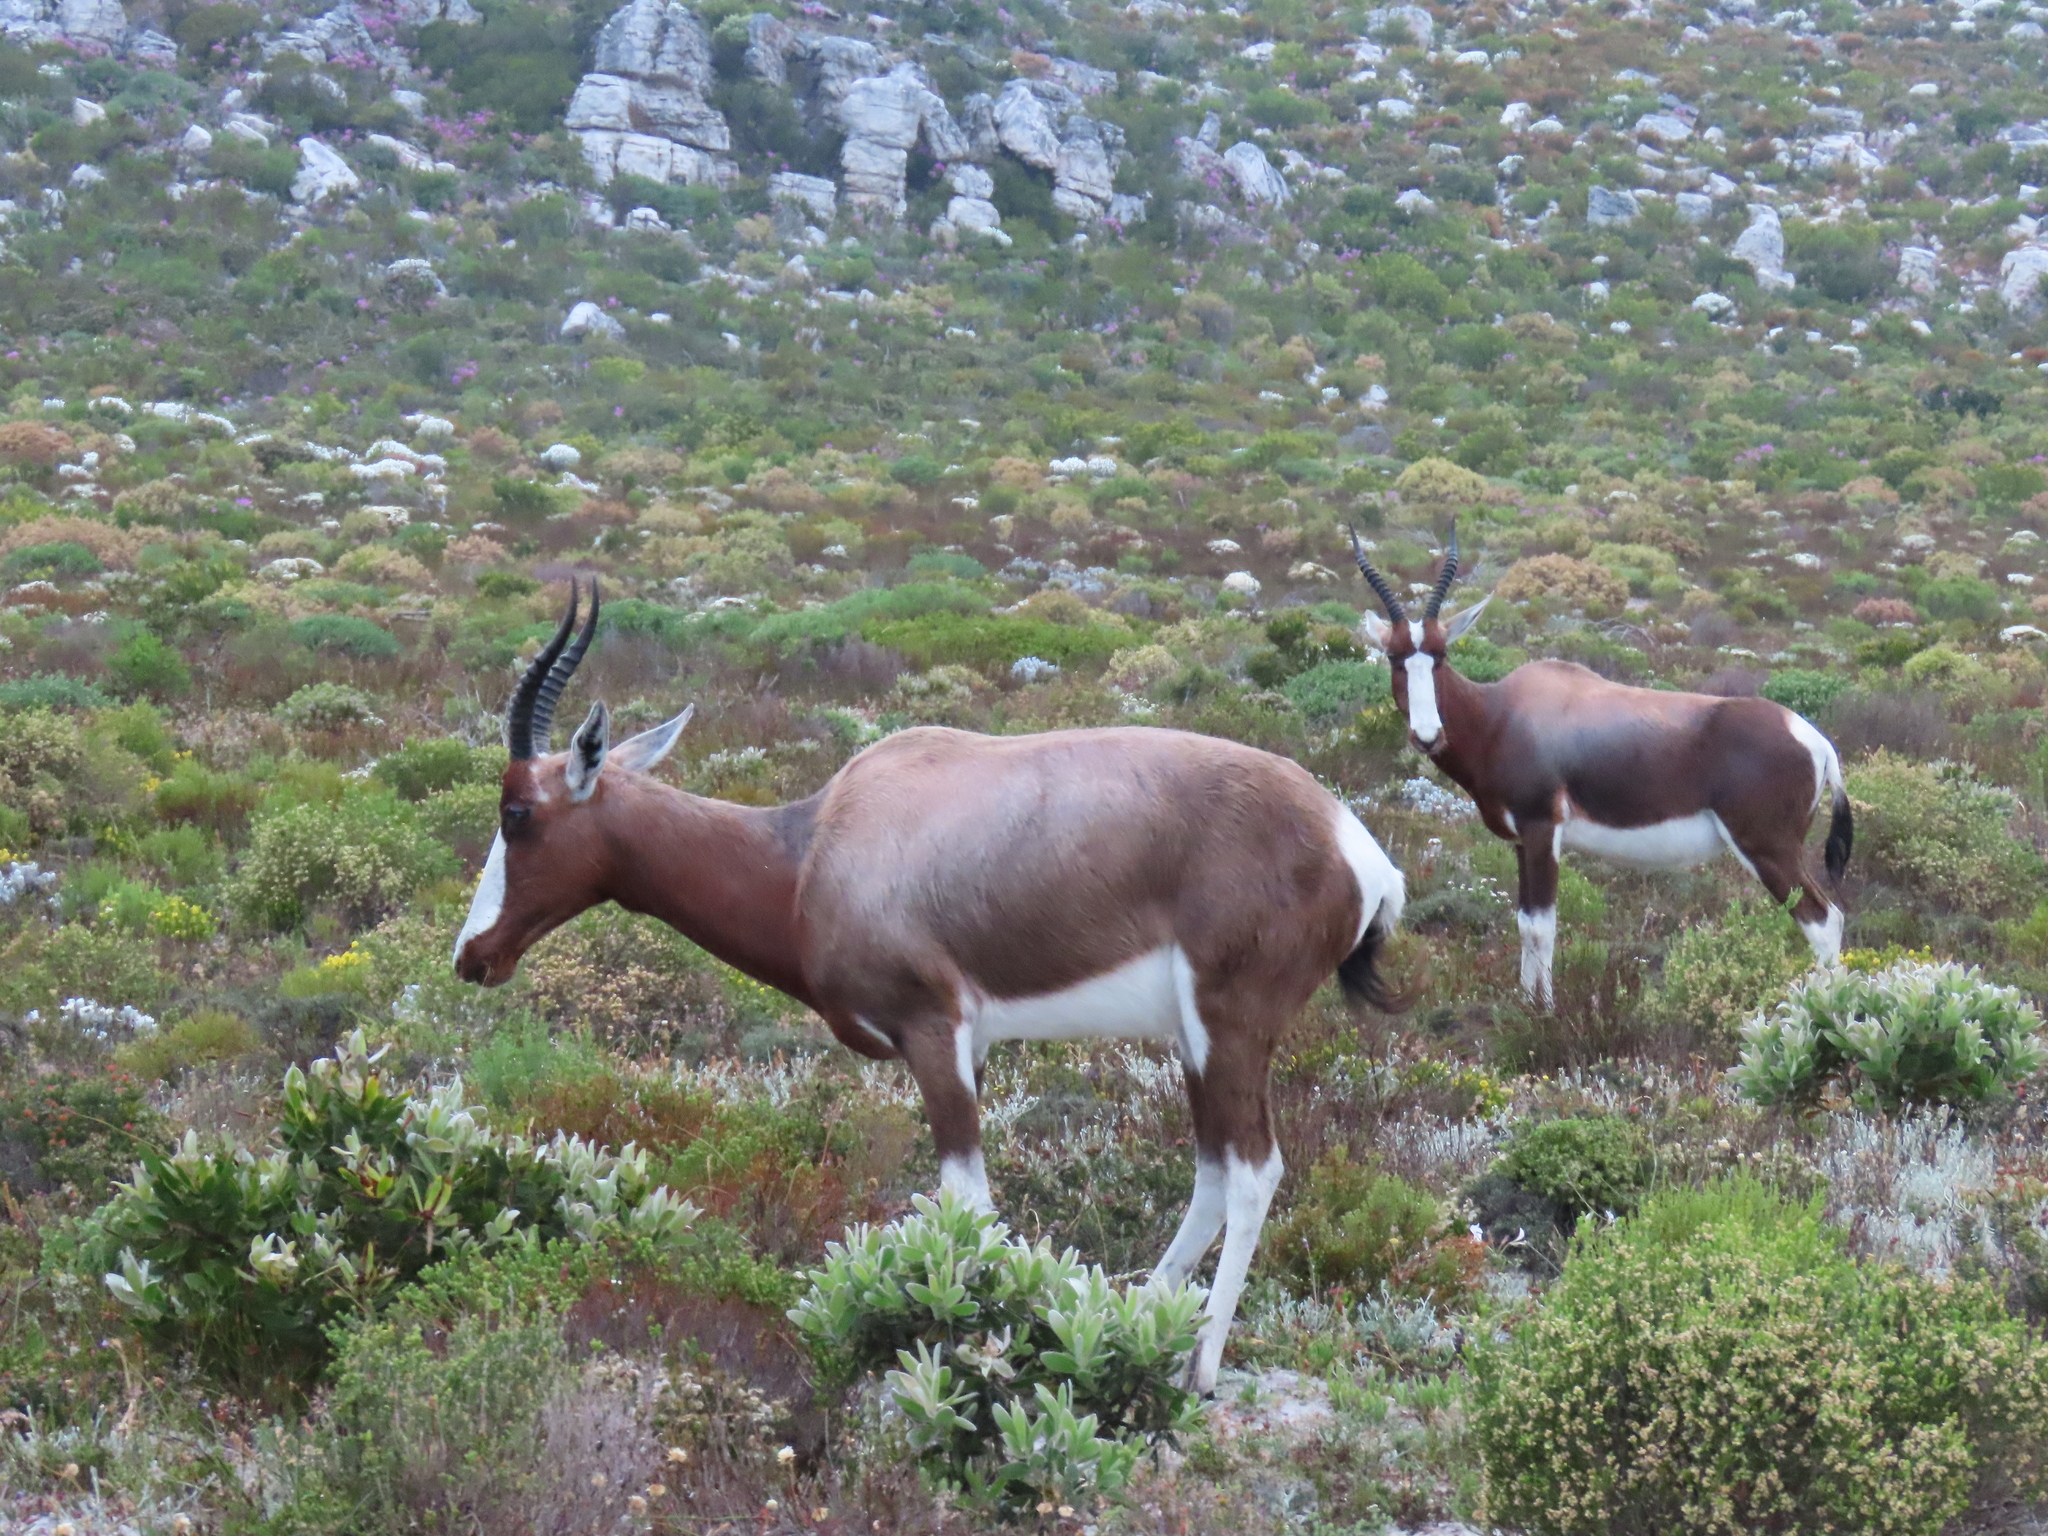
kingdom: Animalia
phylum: Chordata
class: Mammalia
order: Artiodactyla
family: Bovidae
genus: Damaliscus
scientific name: Damaliscus pygargus
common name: Bontebok
